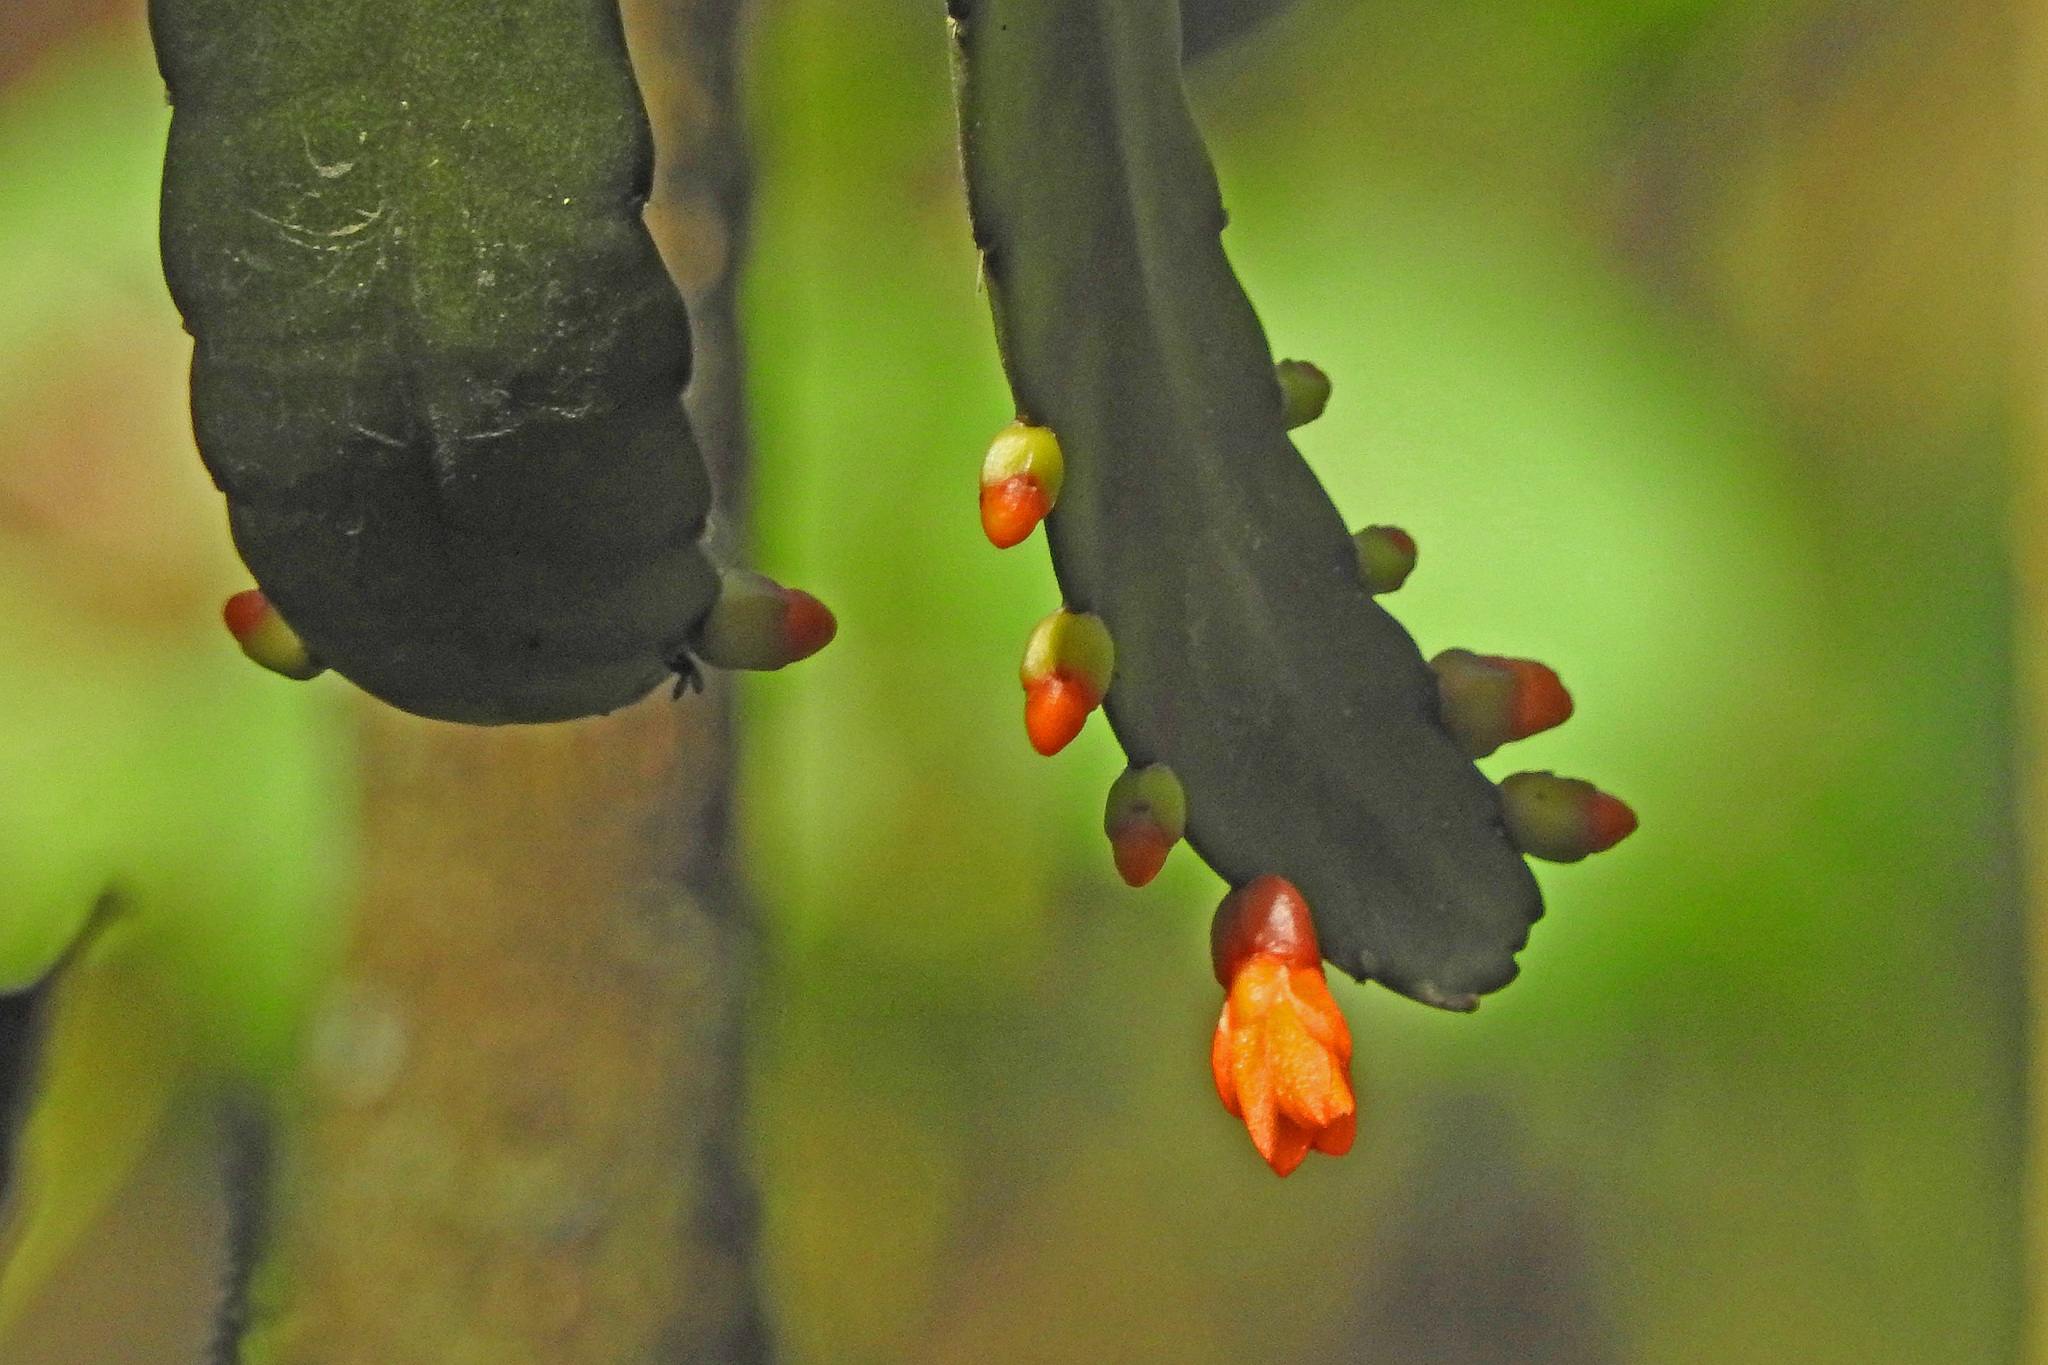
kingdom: Plantae
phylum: Tracheophyta
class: Magnoliopsida
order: Caryophyllales
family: Cactaceae
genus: Pfeiffera
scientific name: Pfeiffera monacantha
